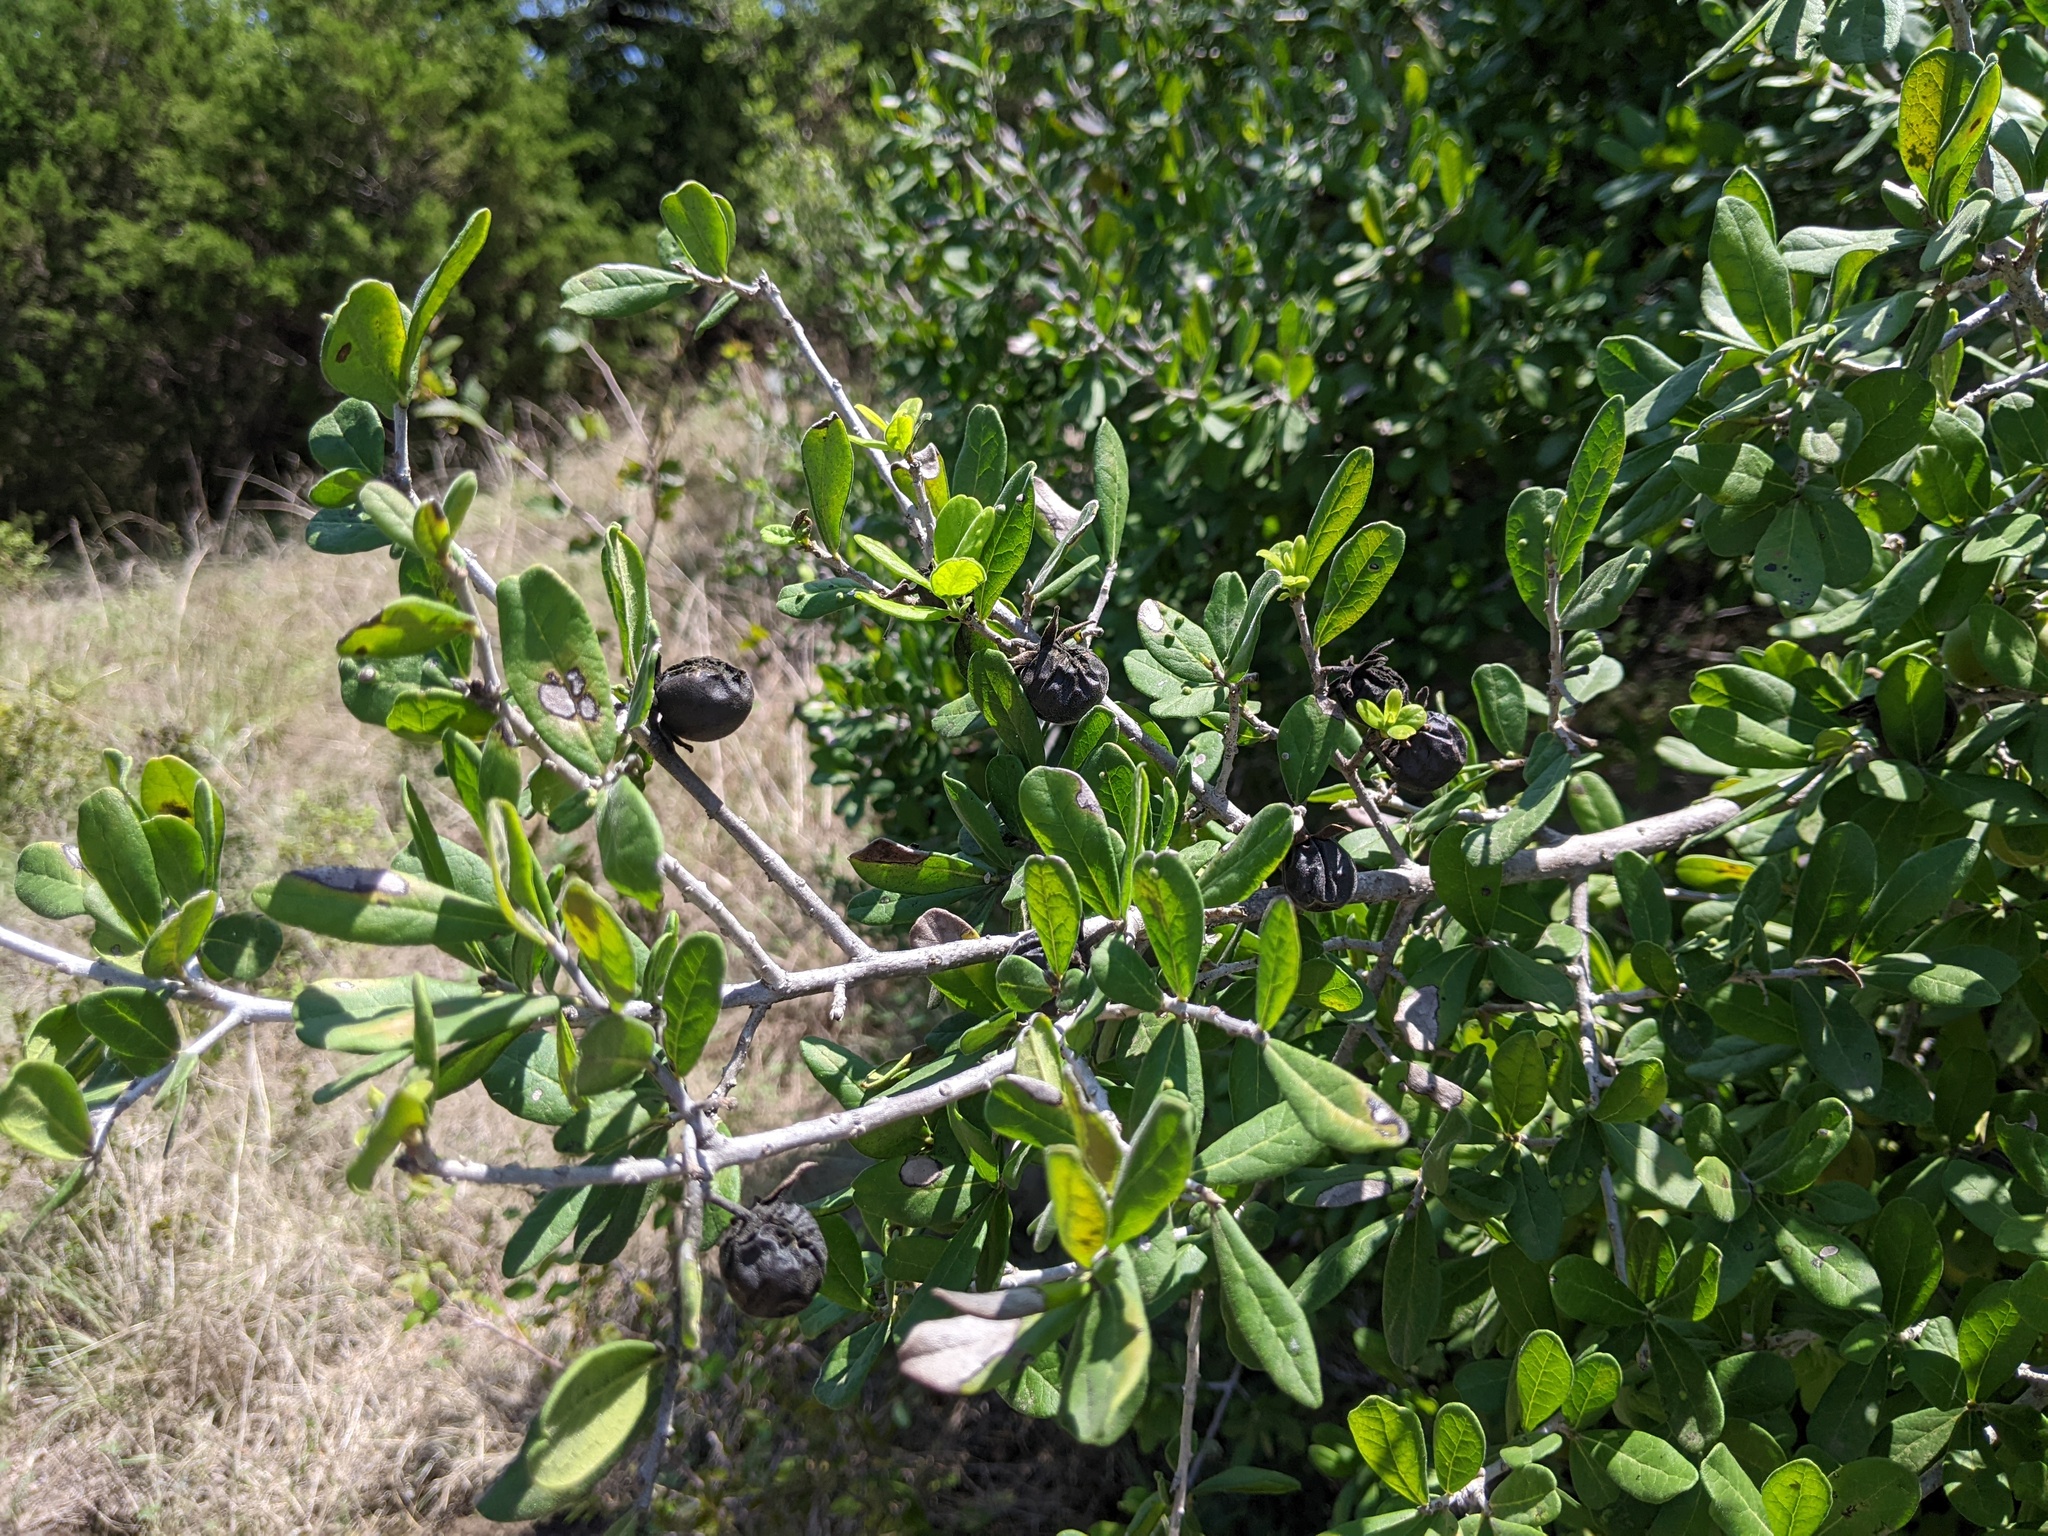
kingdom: Plantae
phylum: Tracheophyta
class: Magnoliopsida
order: Ericales
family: Ebenaceae
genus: Diospyros
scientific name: Diospyros texana
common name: Texas persimmon
